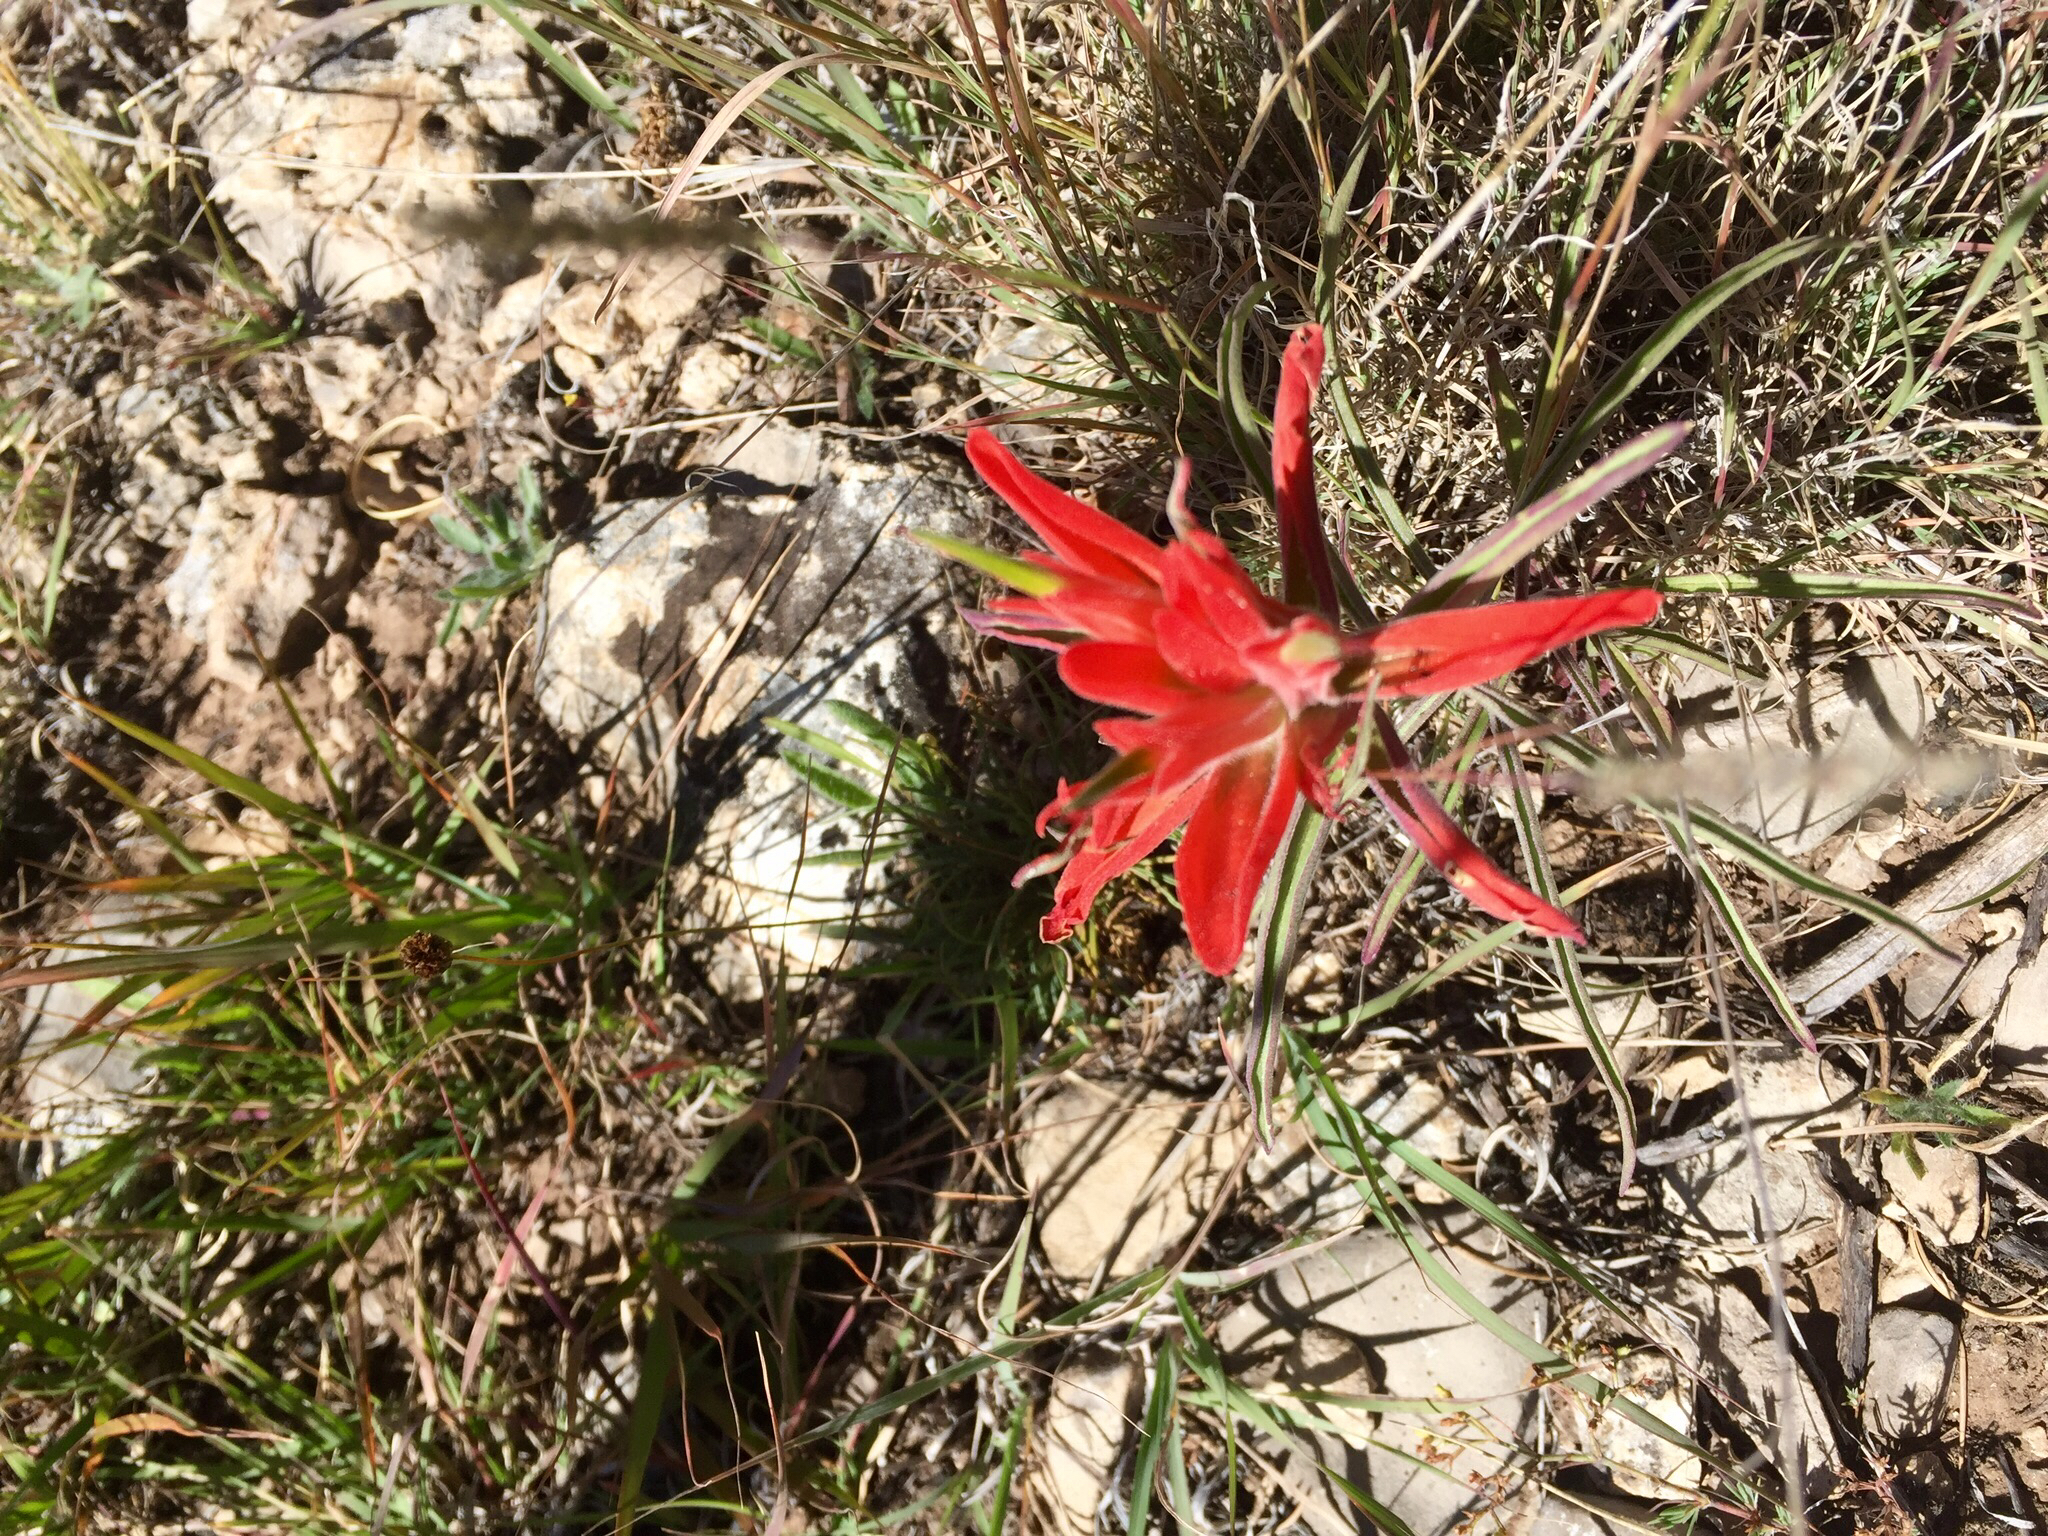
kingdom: Plantae
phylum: Tracheophyta
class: Magnoliopsida
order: Lamiales
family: Orobanchaceae
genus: Castilleja
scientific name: Castilleja integra
